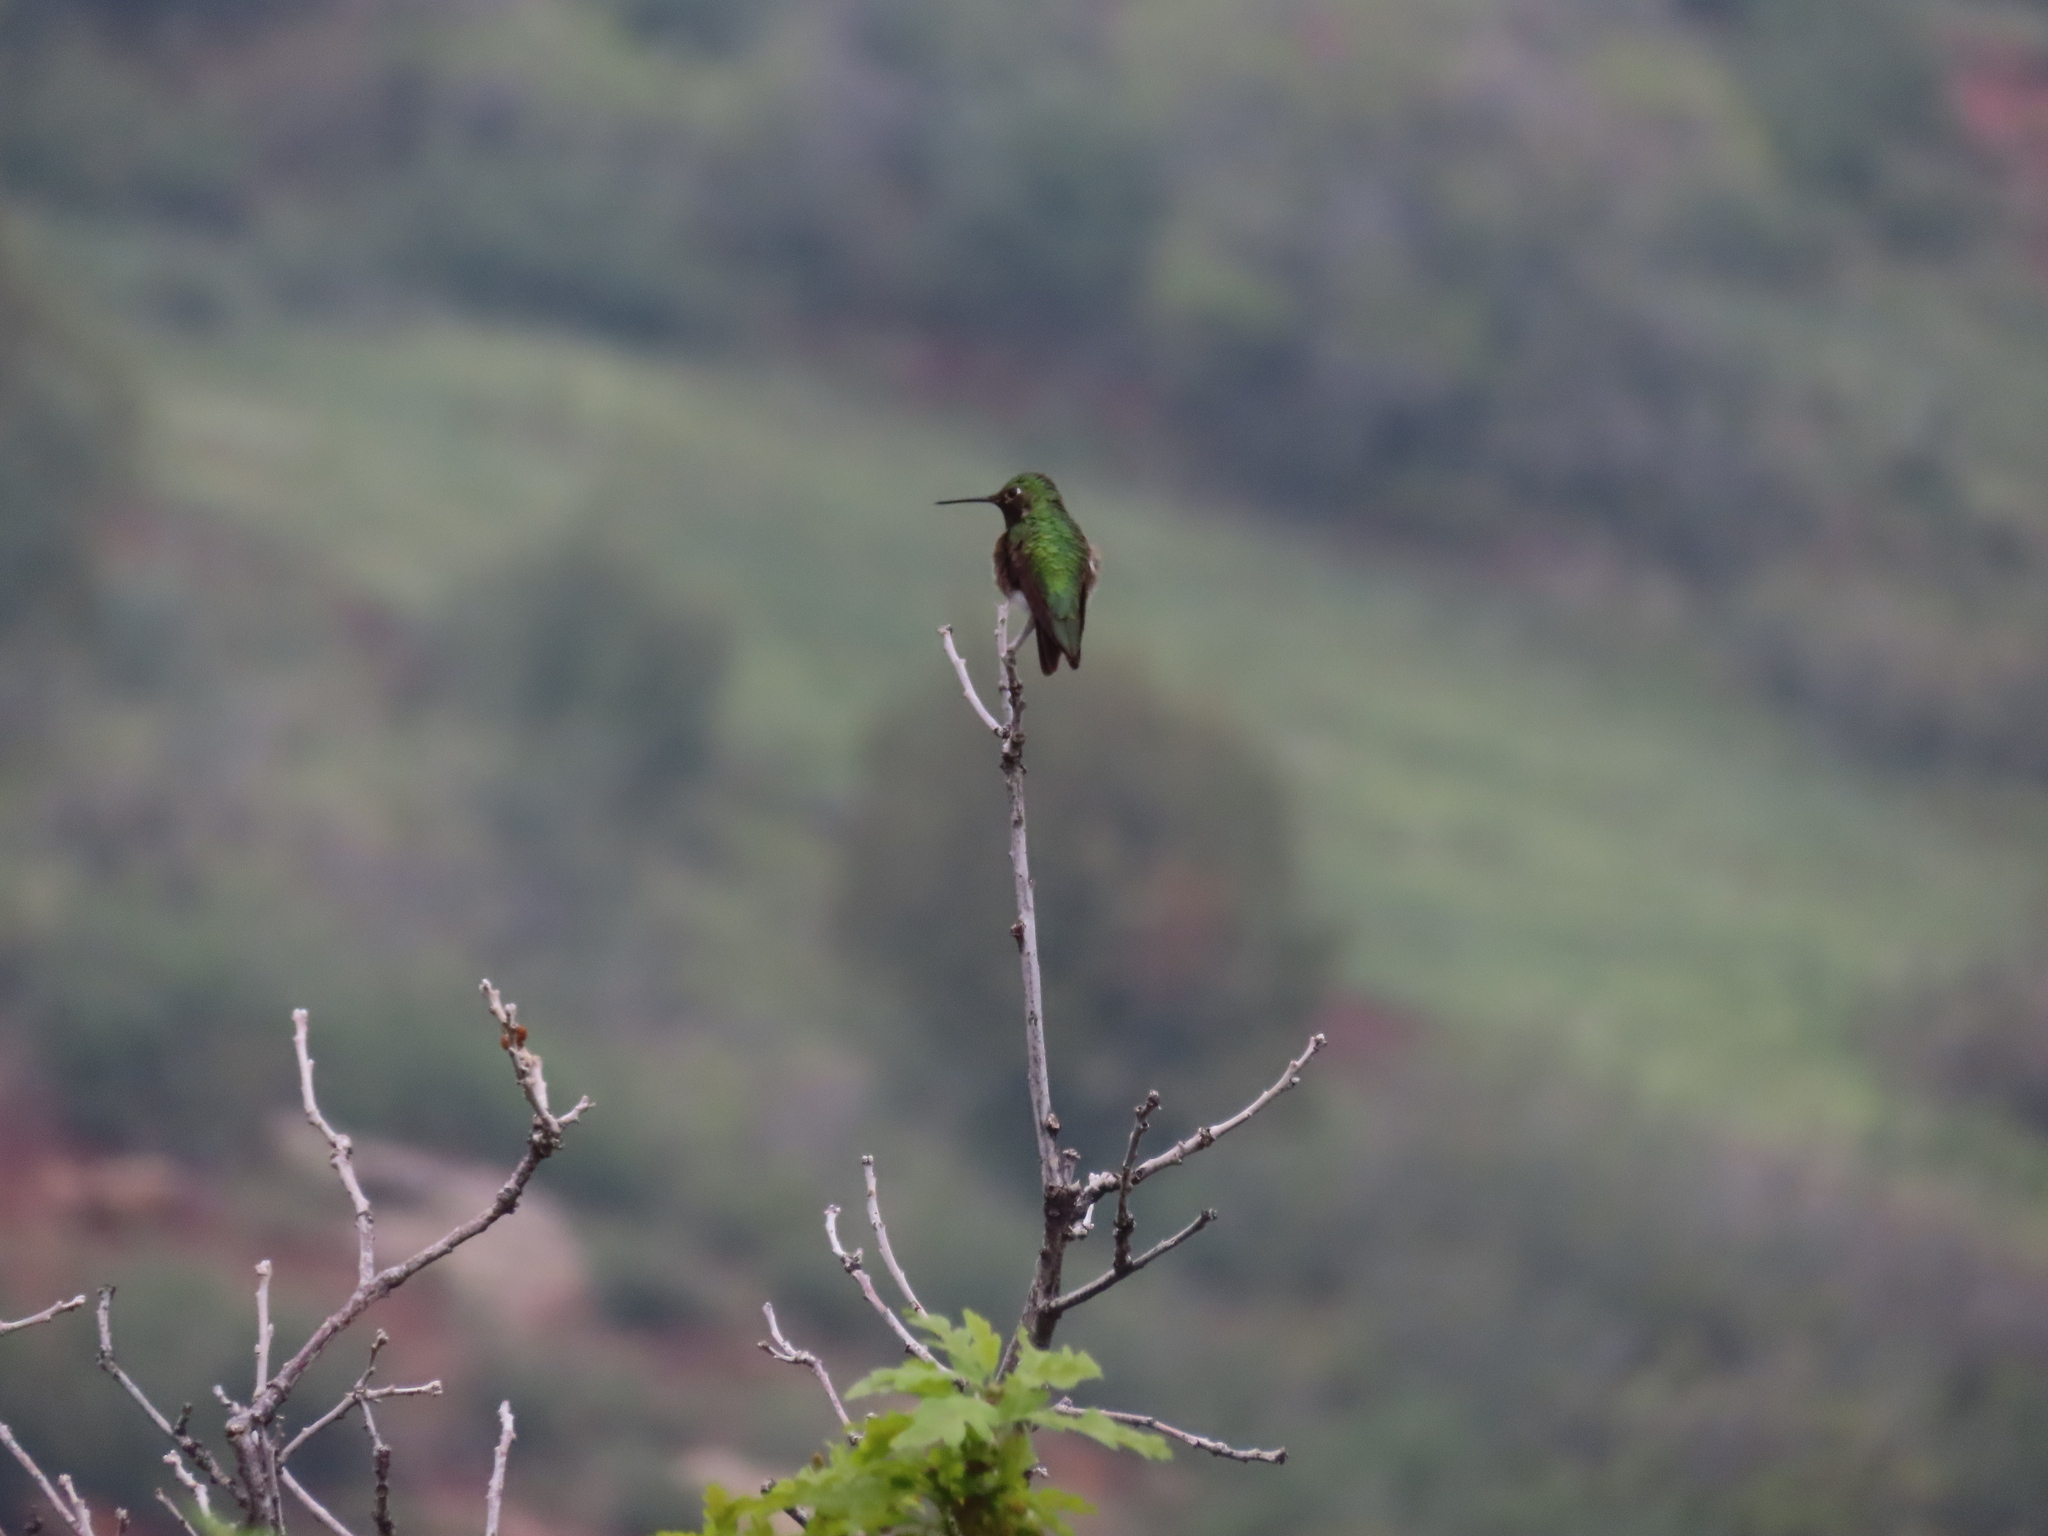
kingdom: Animalia
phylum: Chordata
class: Aves
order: Apodiformes
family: Trochilidae
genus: Selasphorus
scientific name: Selasphorus platycercus
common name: Broad-tailed hummingbird
